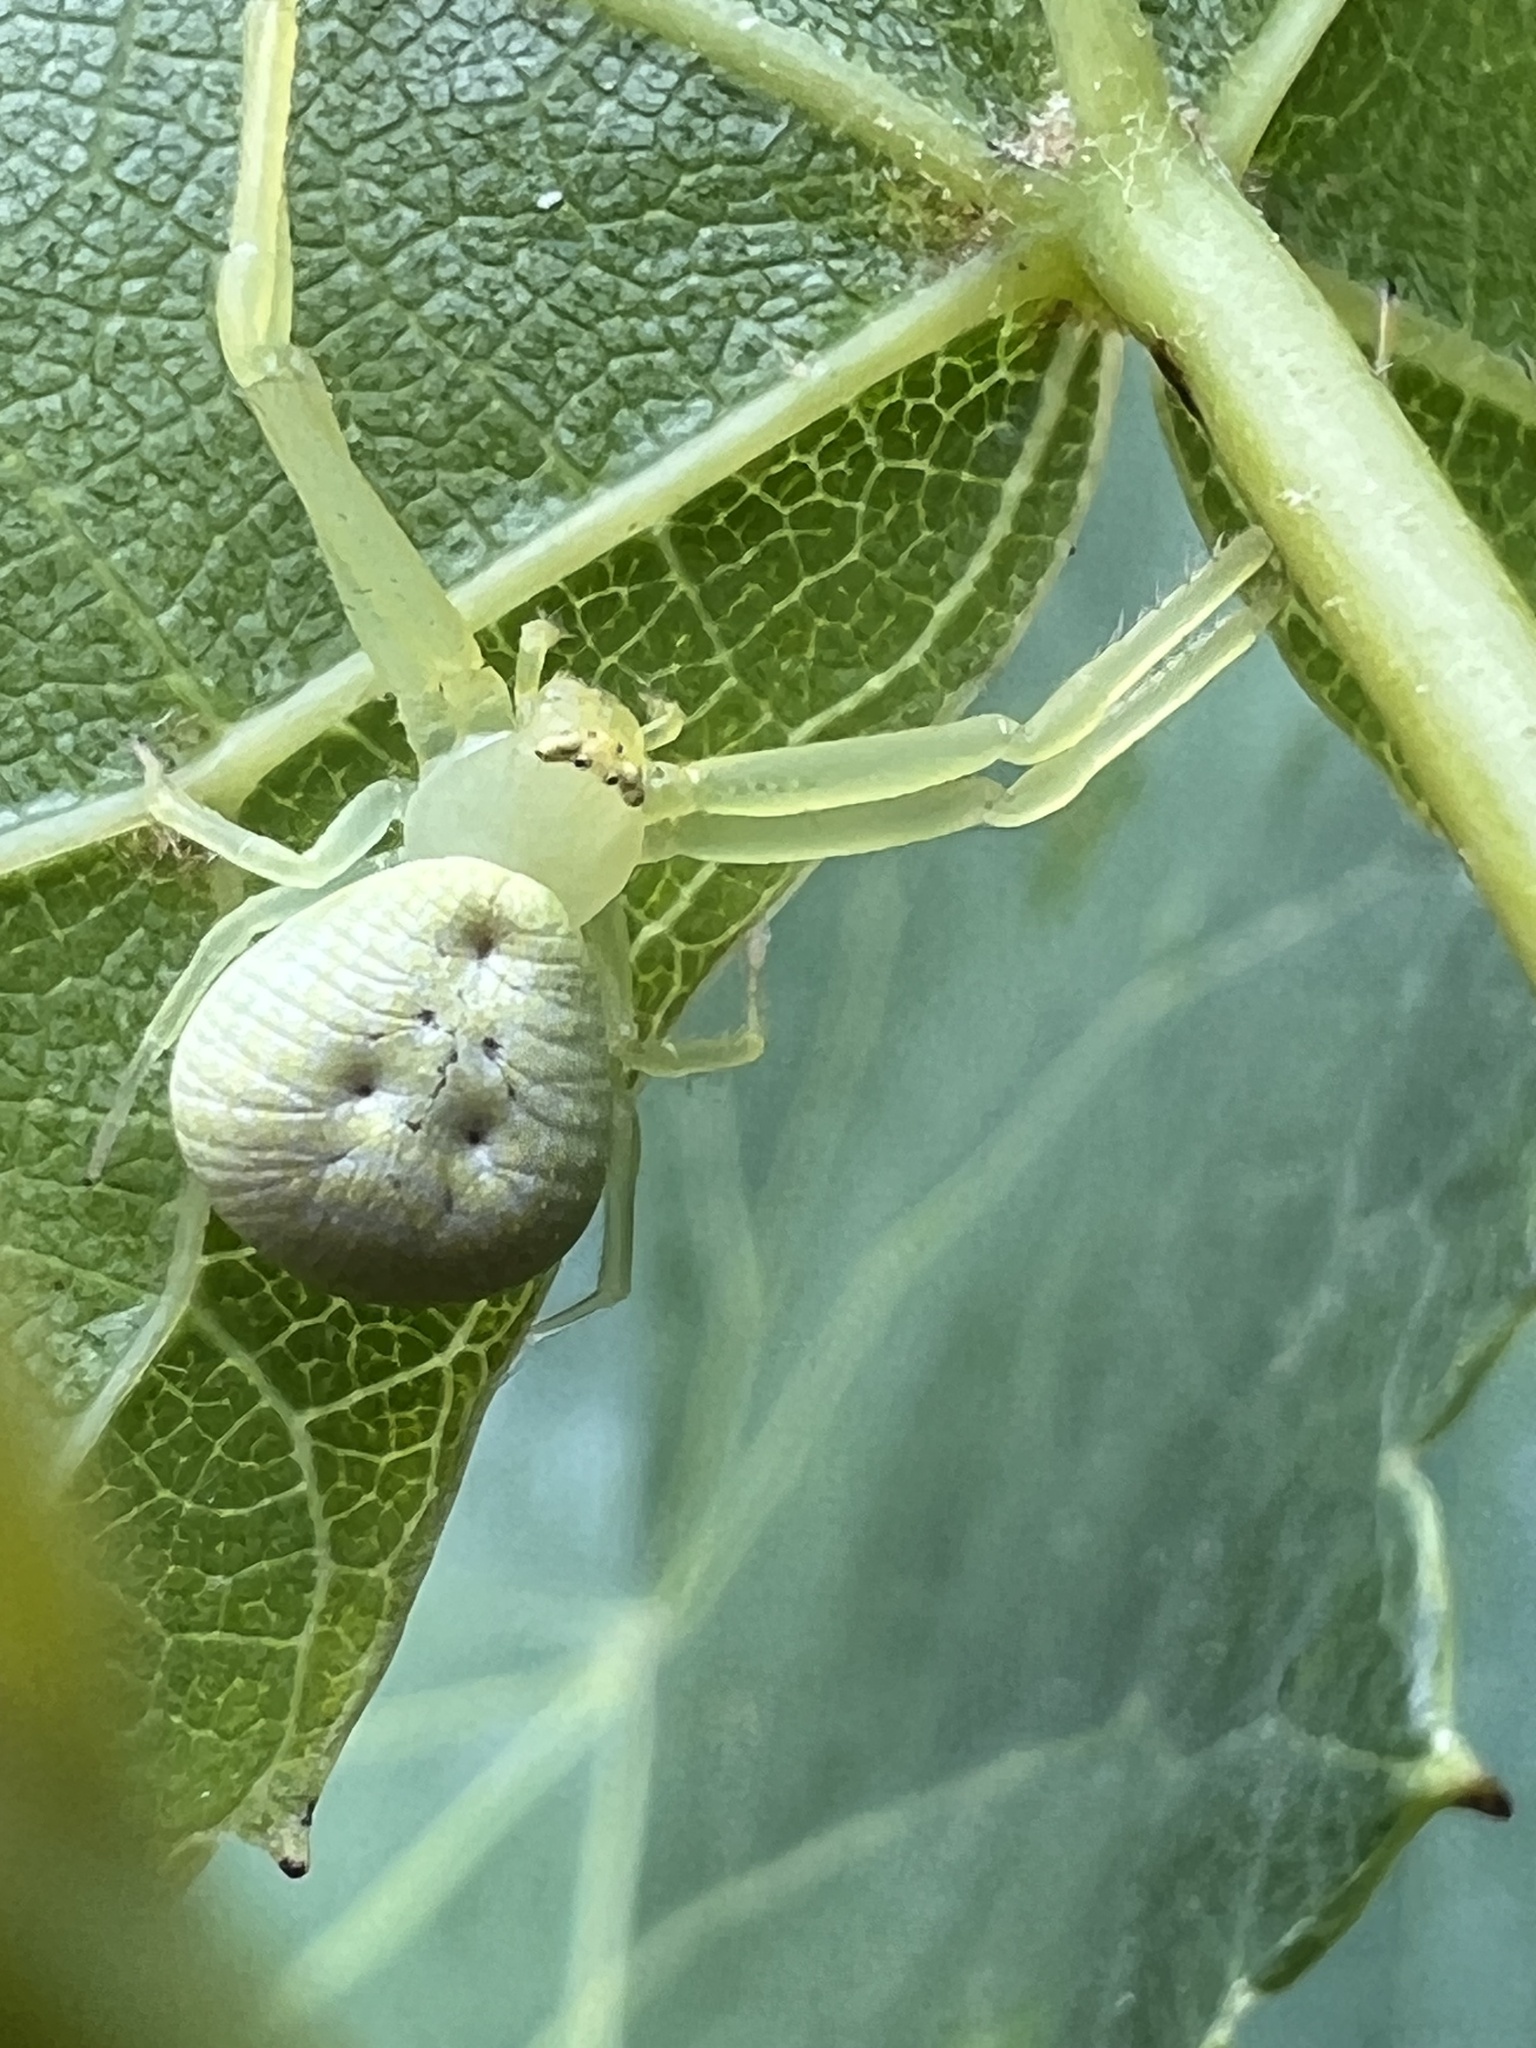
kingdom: Animalia
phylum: Arthropoda
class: Arachnida
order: Araneae
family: Thomisidae
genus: Misumessus
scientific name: Misumessus oblongus
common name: American green crab spider
